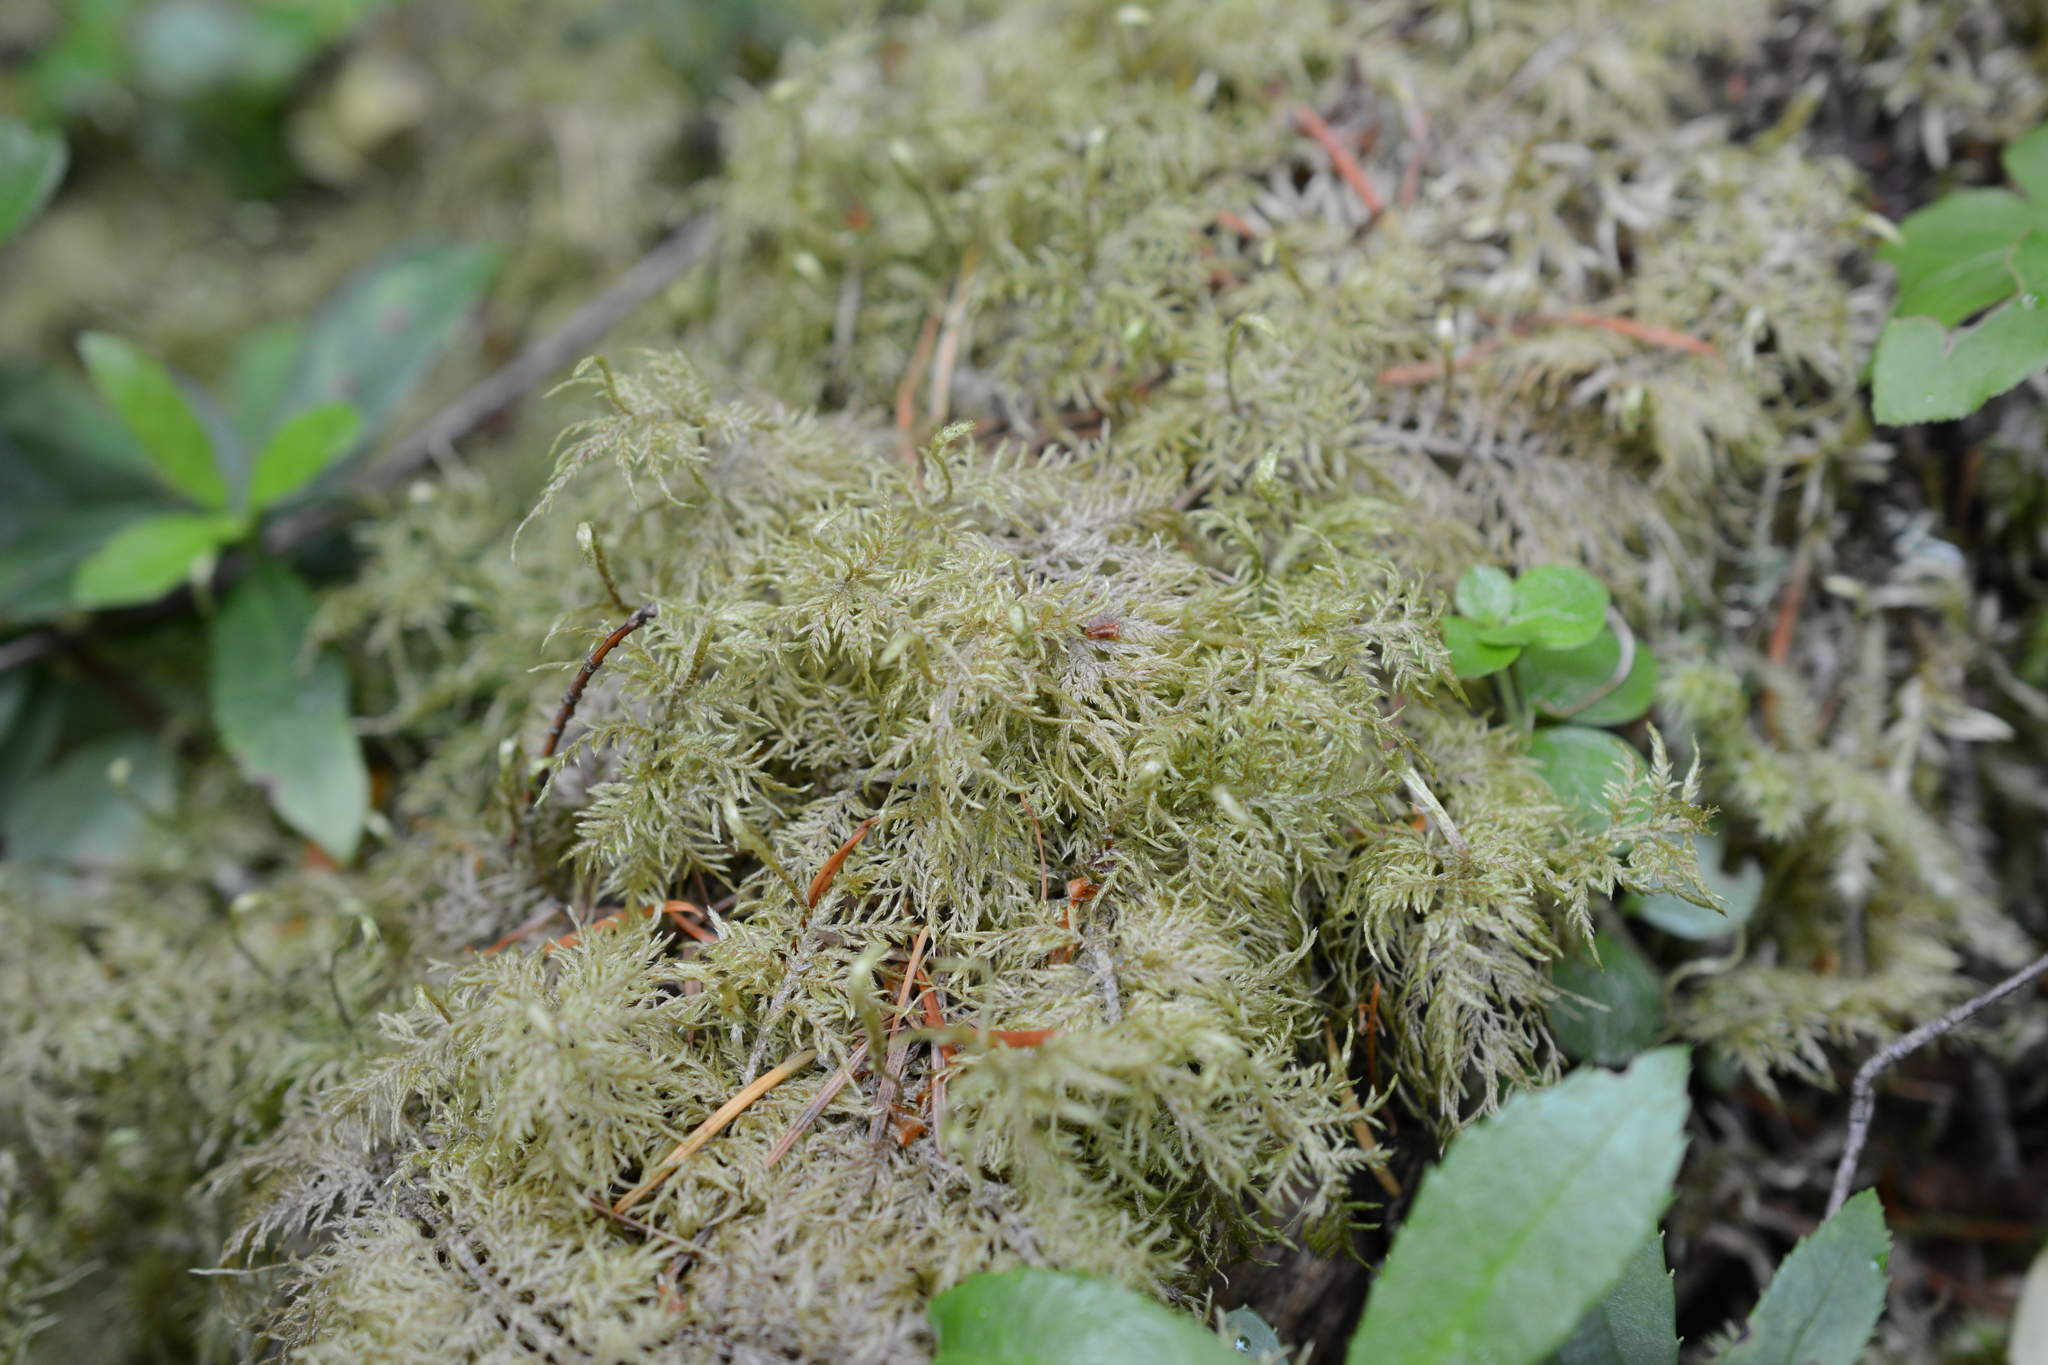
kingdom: Plantae
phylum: Bryophyta
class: Bryopsida
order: Hypnales
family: Hylocomiaceae
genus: Hylocomium
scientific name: Hylocomium splendens
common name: Stairstep moss
